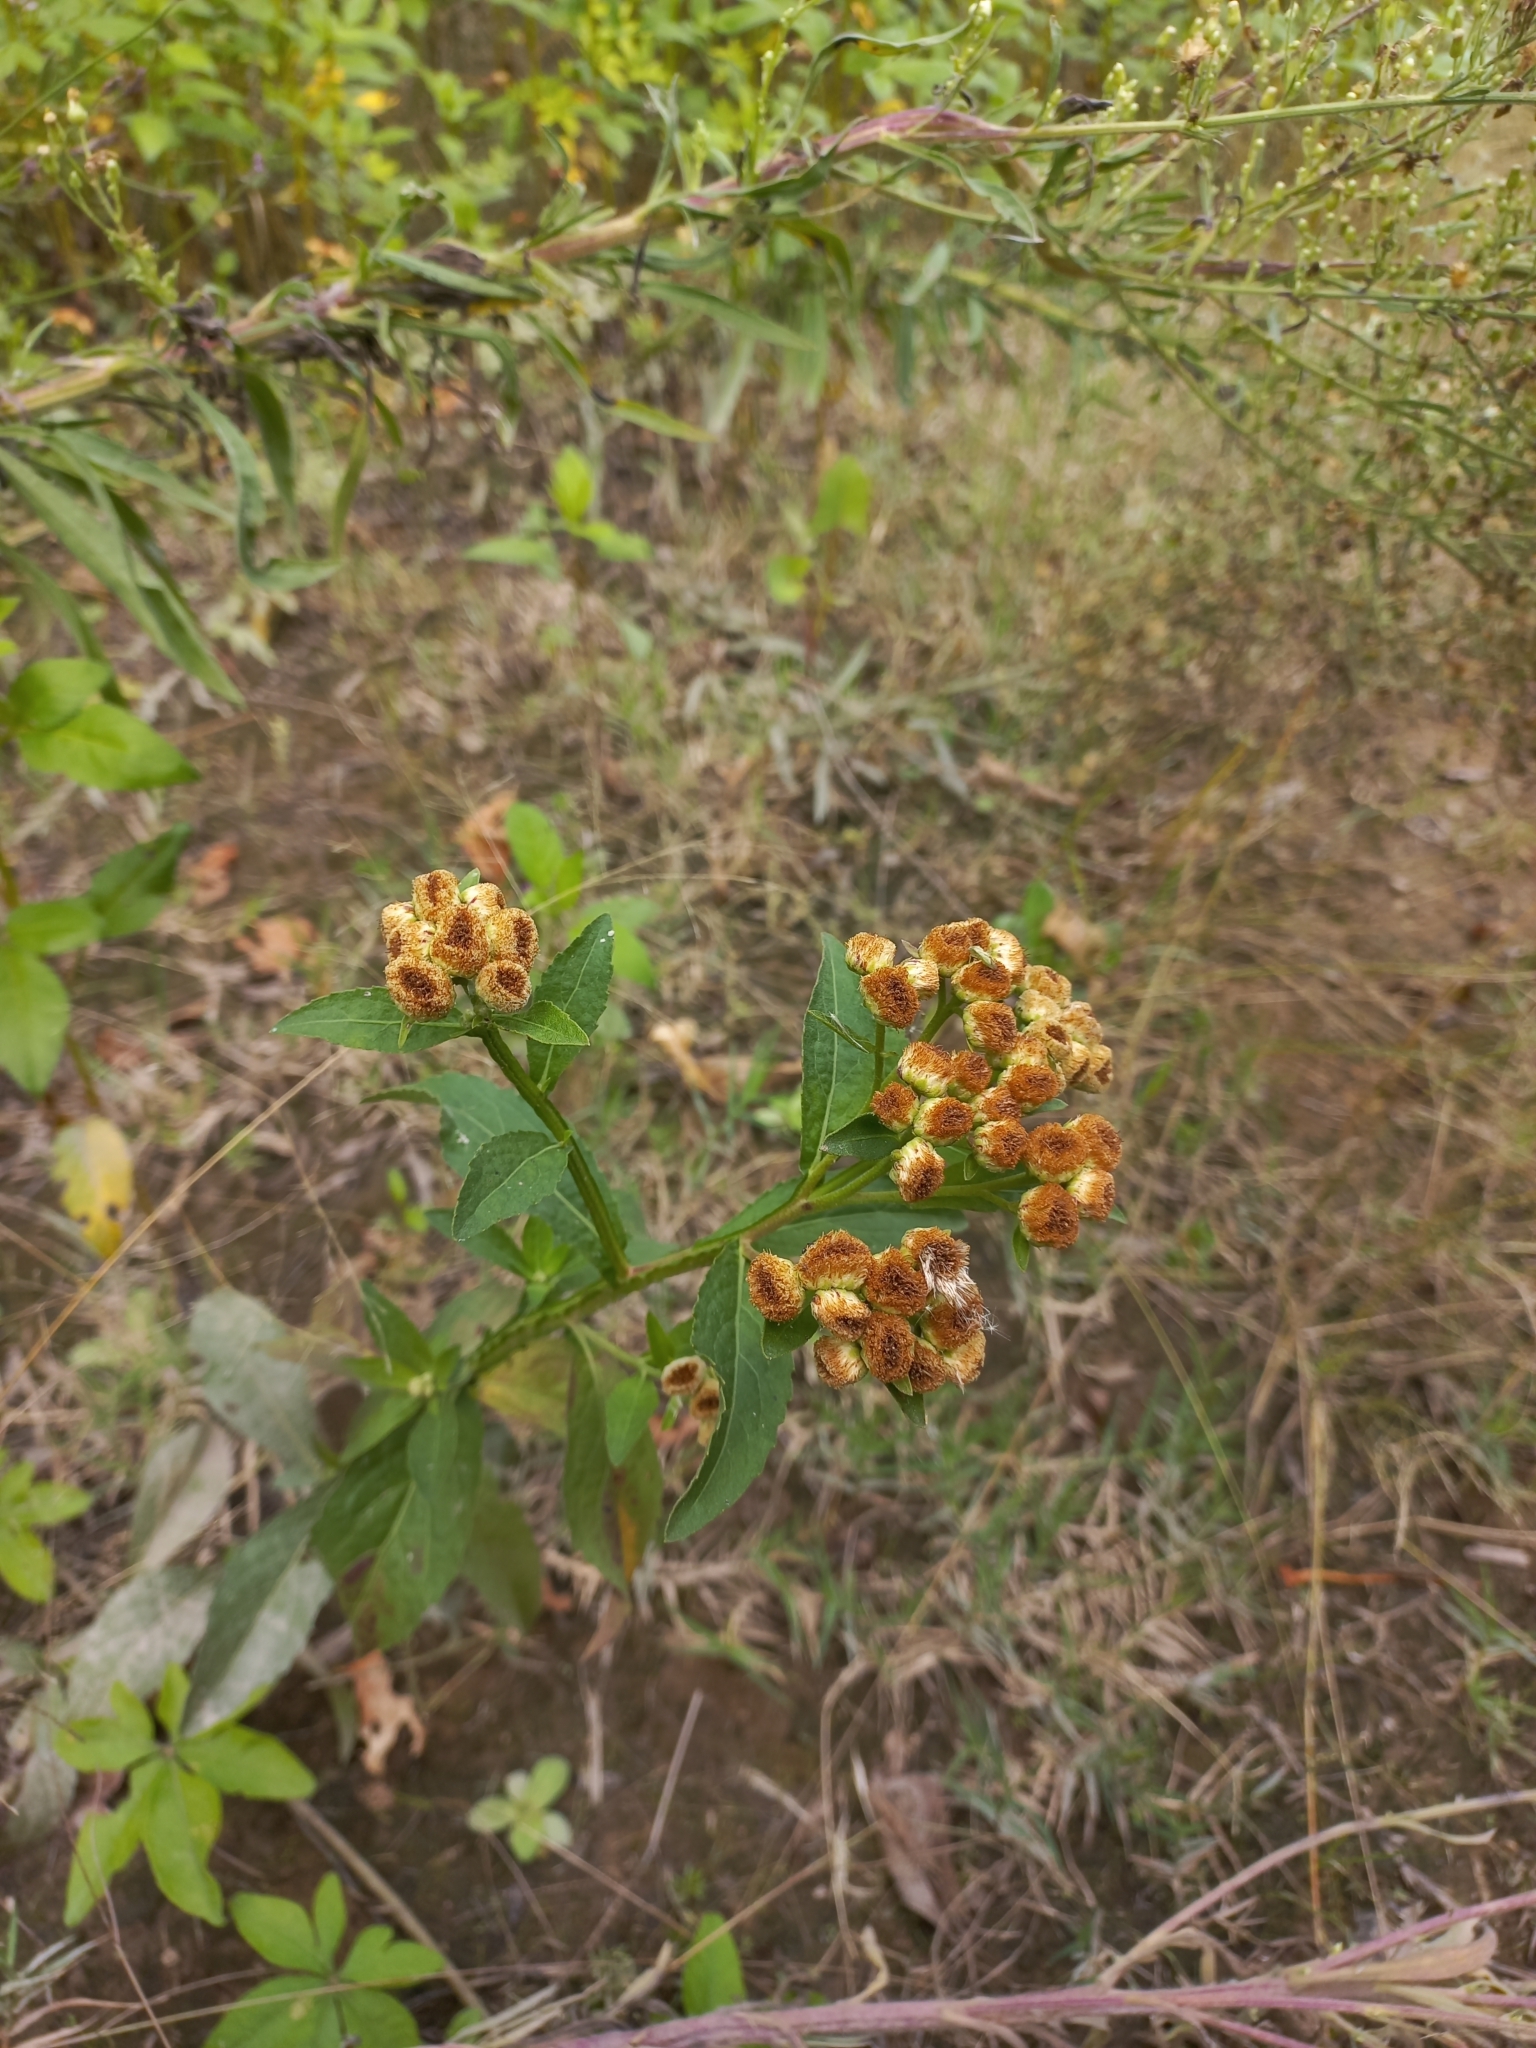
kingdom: Plantae
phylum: Tracheophyta
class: Magnoliopsida
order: Asterales
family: Asteraceae
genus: Pluchea
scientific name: Pluchea sagittalis
